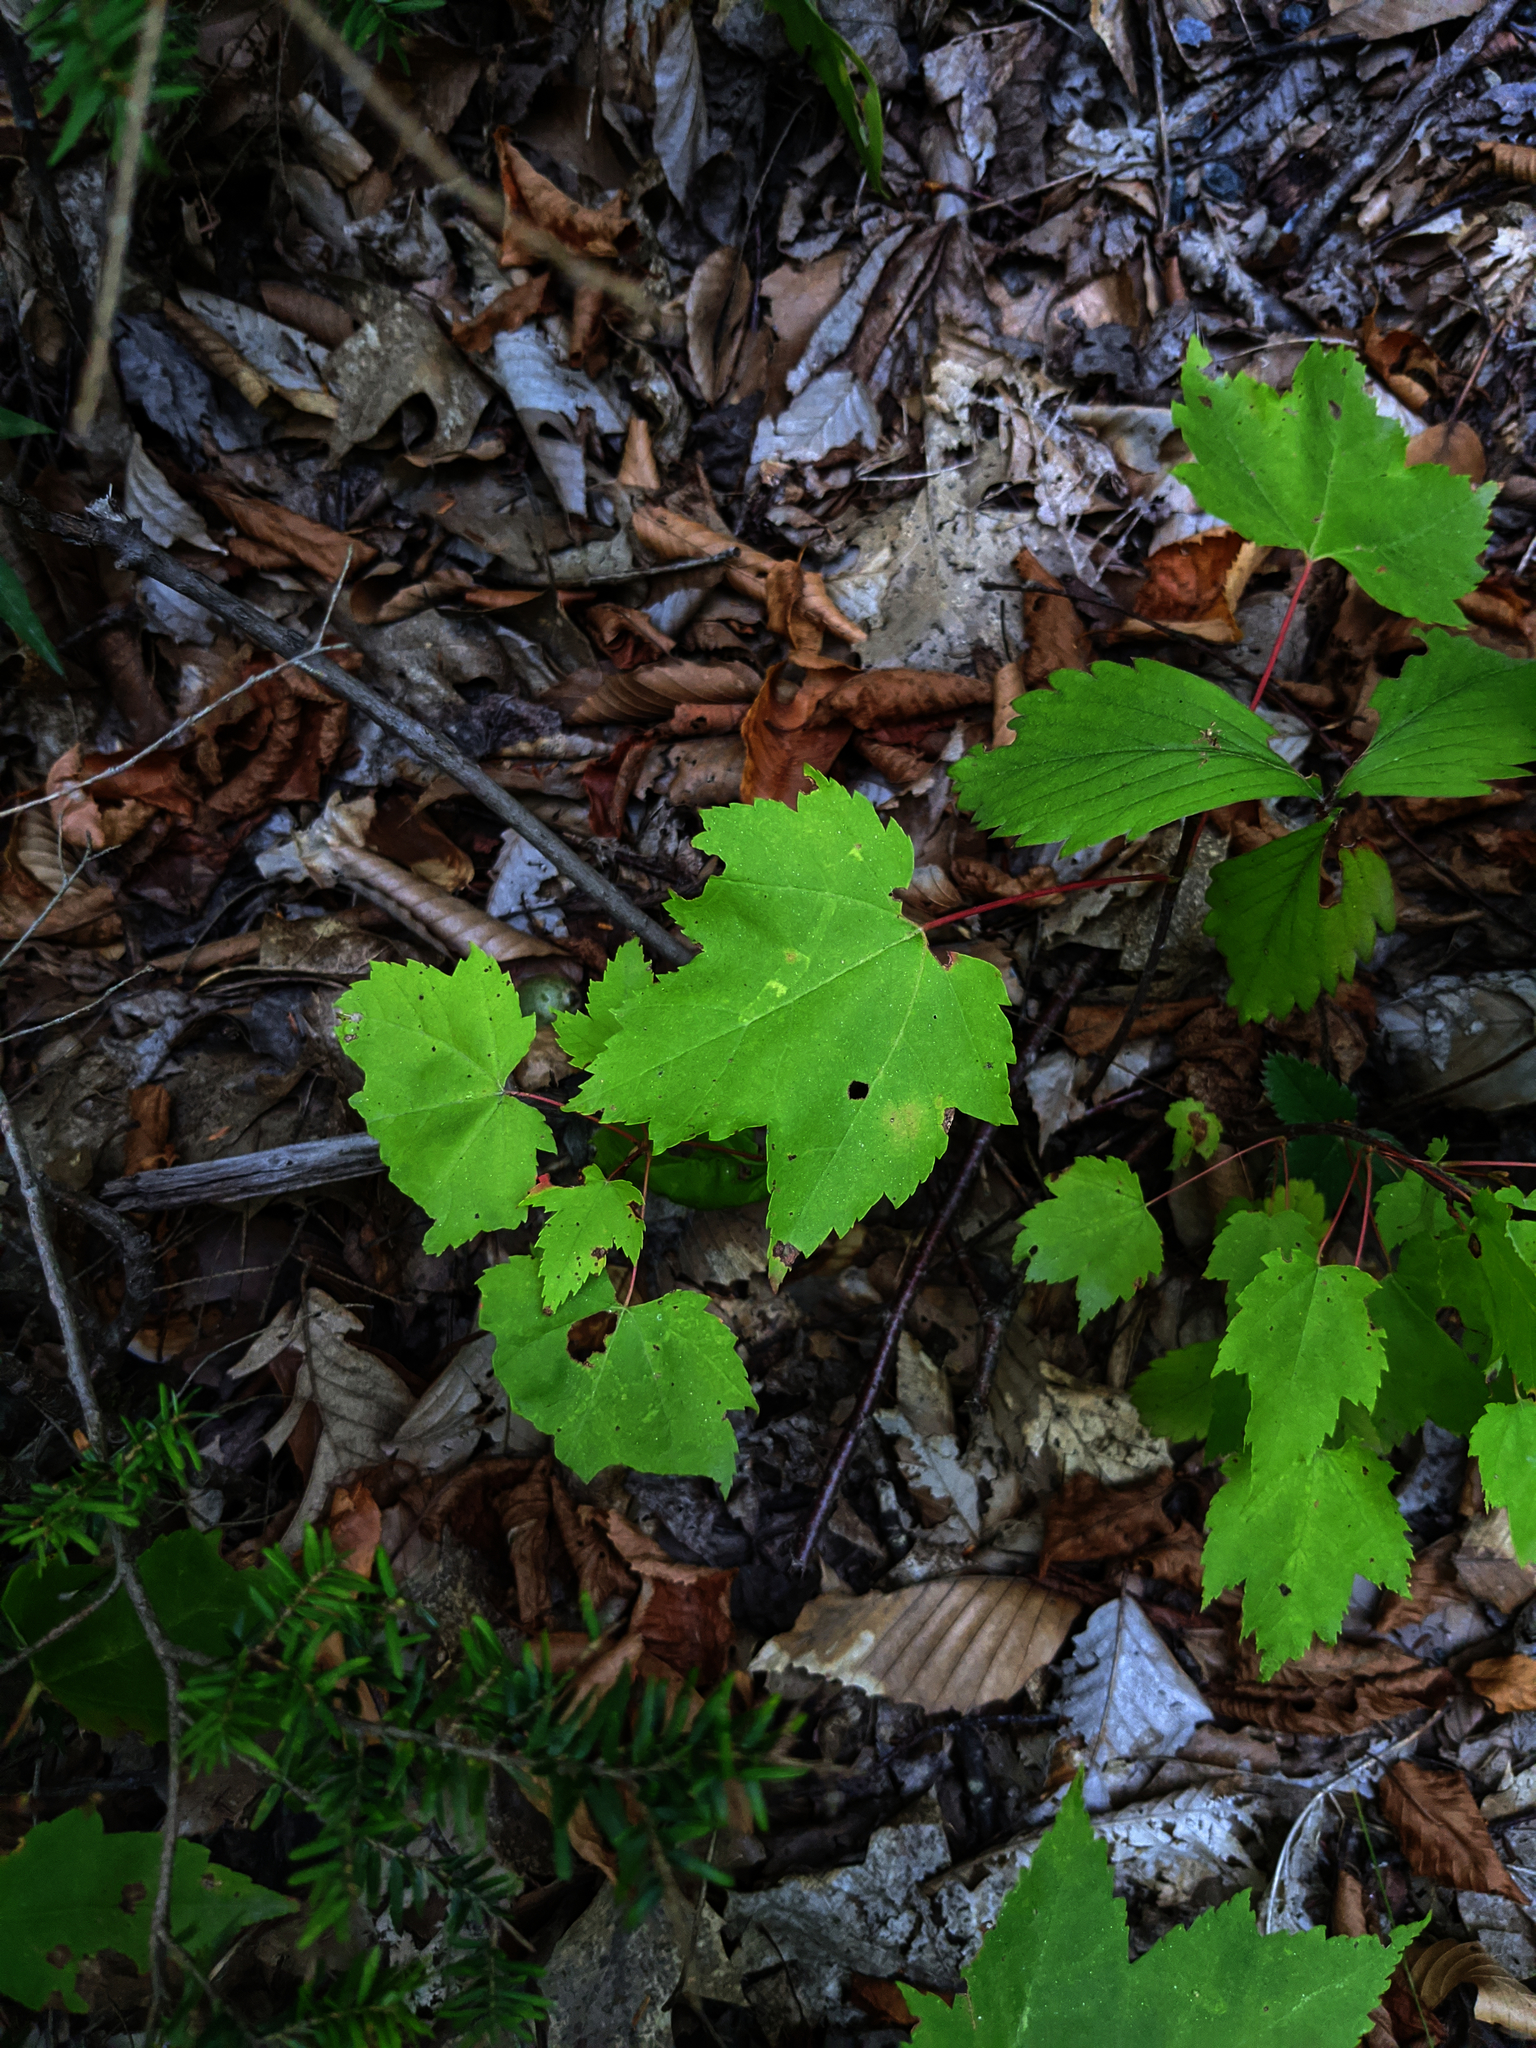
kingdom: Plantae
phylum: Tracheophyta
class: Magnoliopsida
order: Sapindales
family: Sapindaceae
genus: Acer
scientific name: Acer rubrum
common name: Red maple
